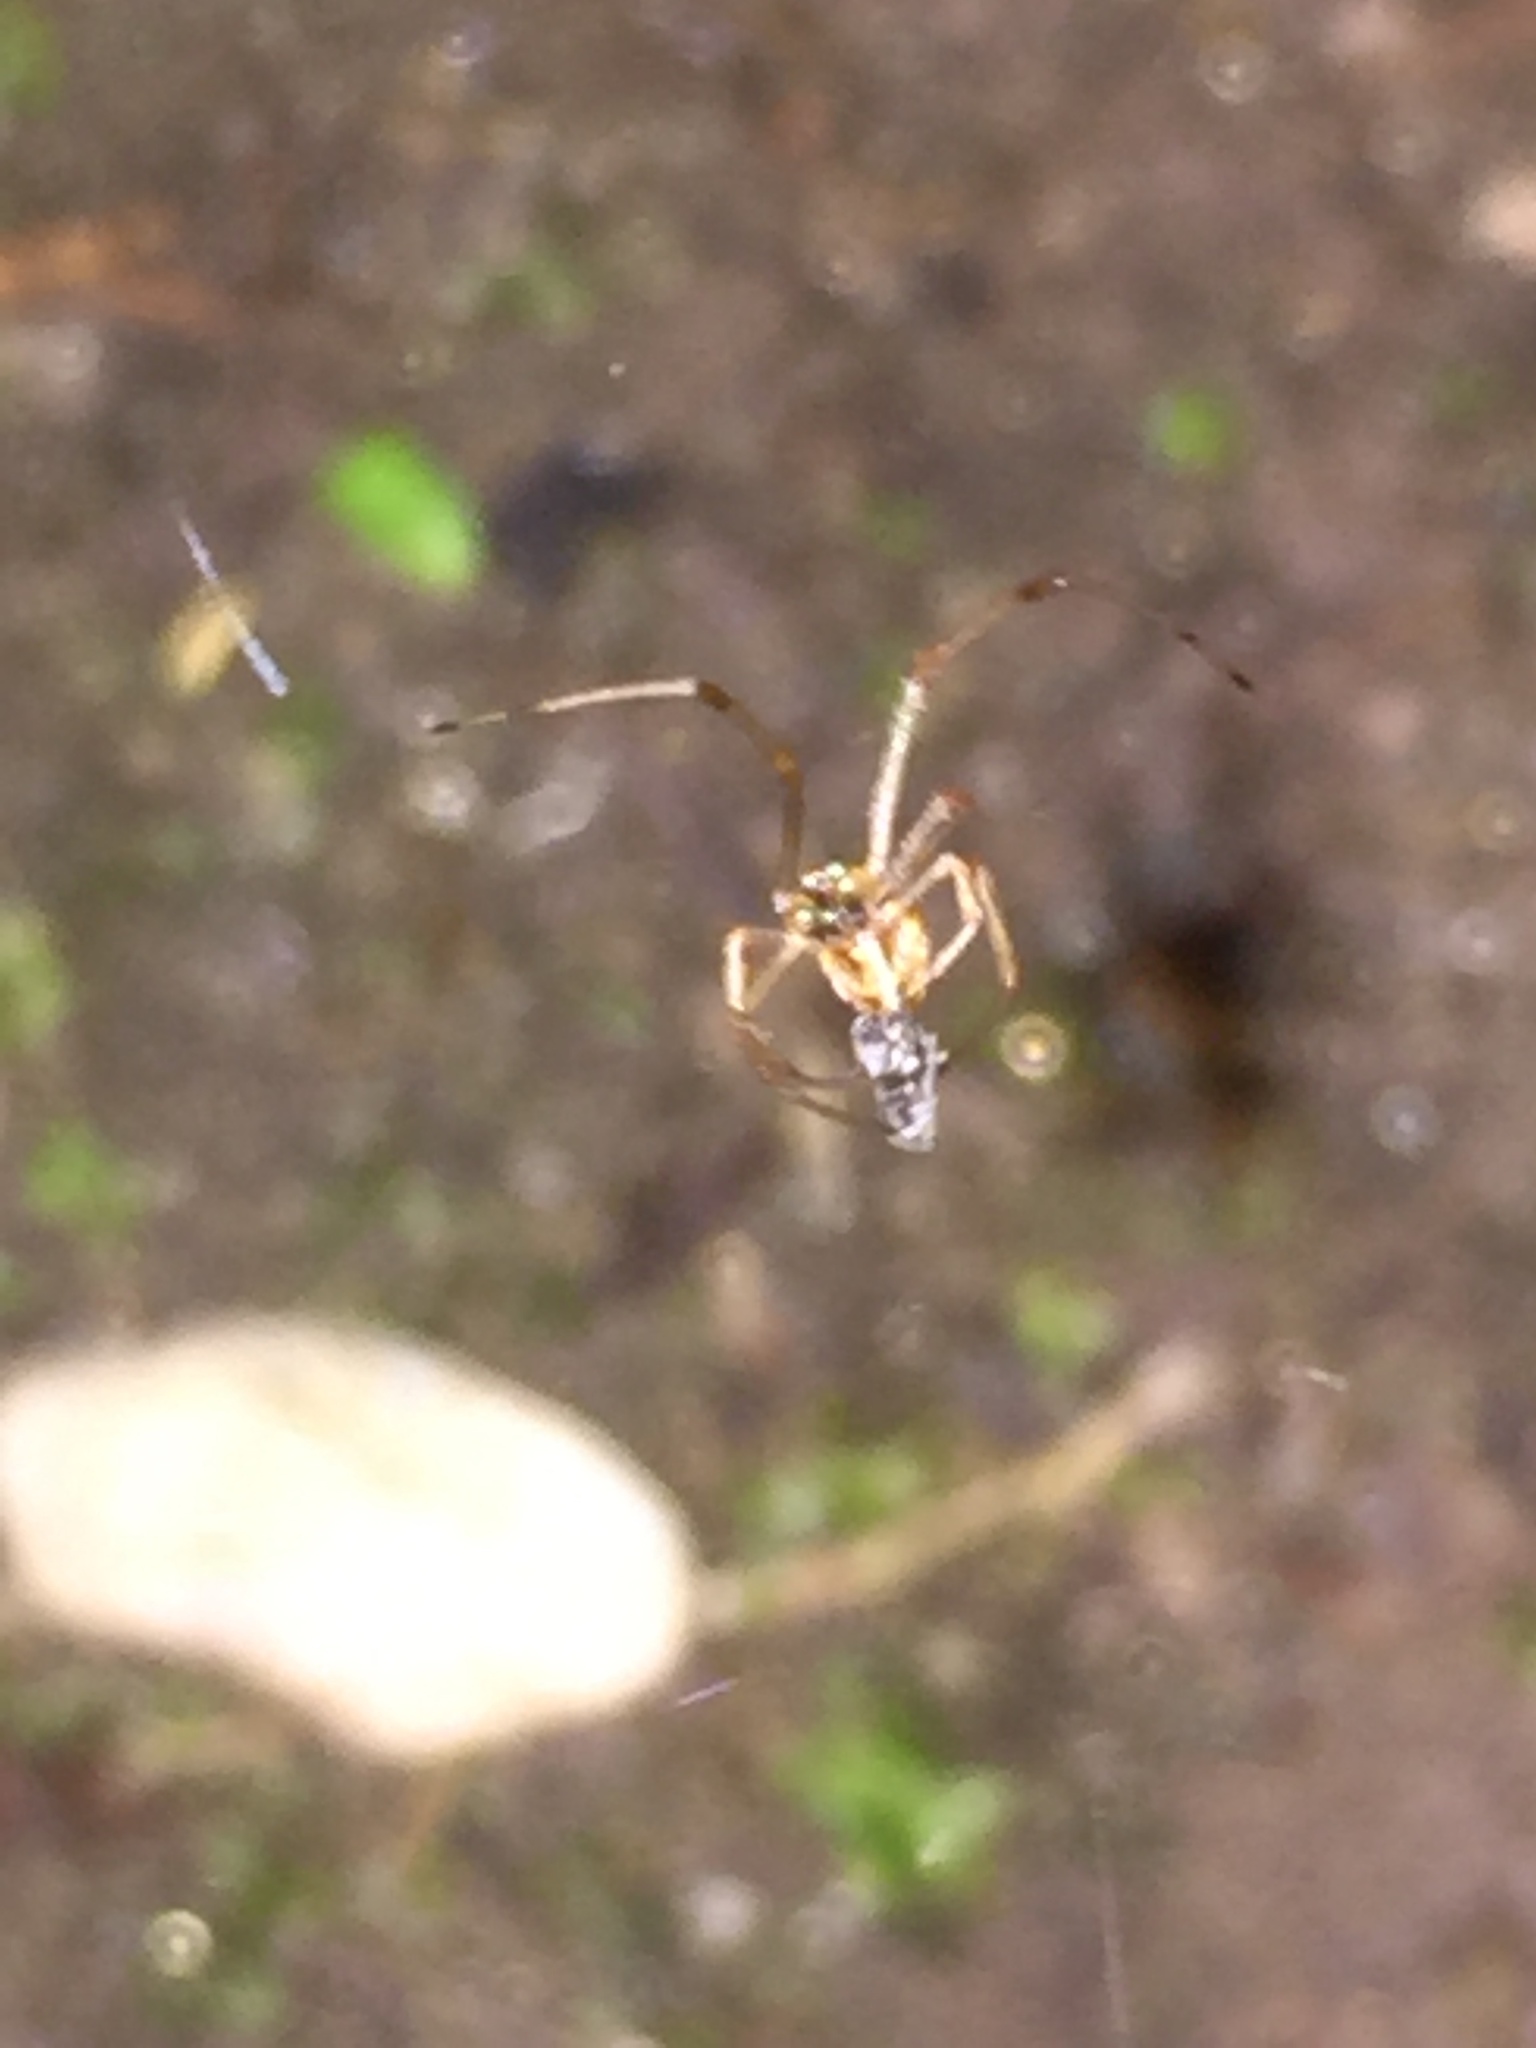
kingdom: Animalia
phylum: Arthropoda
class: Arachnida
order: Araneae
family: Theridiidae
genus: Latrodectus
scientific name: Latrodectus geometricus
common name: Brown widow spider
